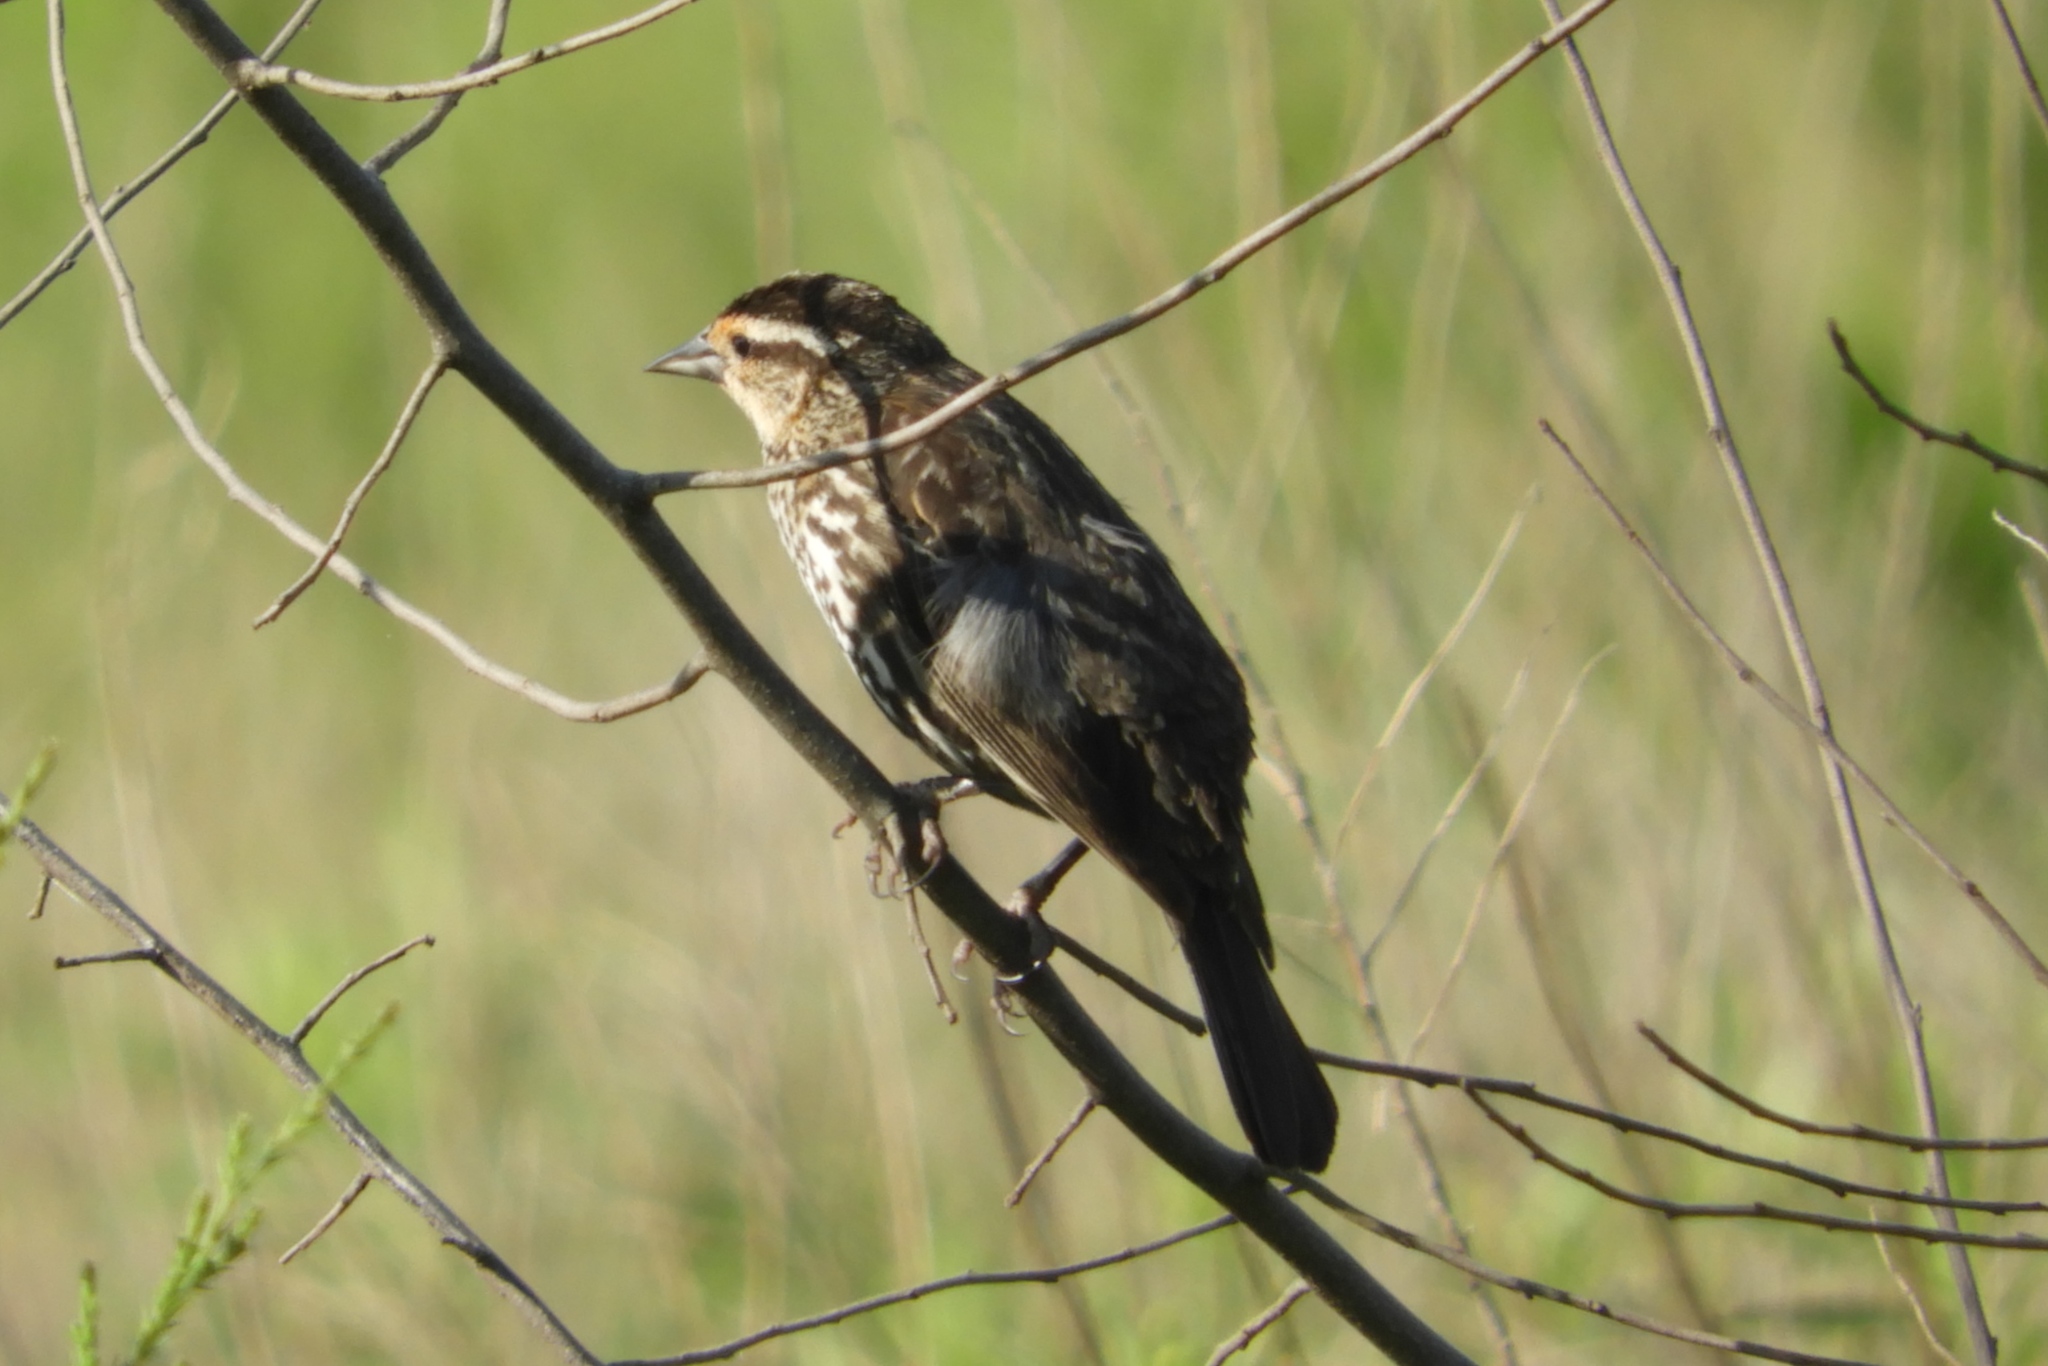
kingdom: Animalia
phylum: Chordata
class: Aves
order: Passeriformes
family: Icteridae
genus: Agelaius
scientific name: Agelaius phoeniceus
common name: Red-winged blackbird
